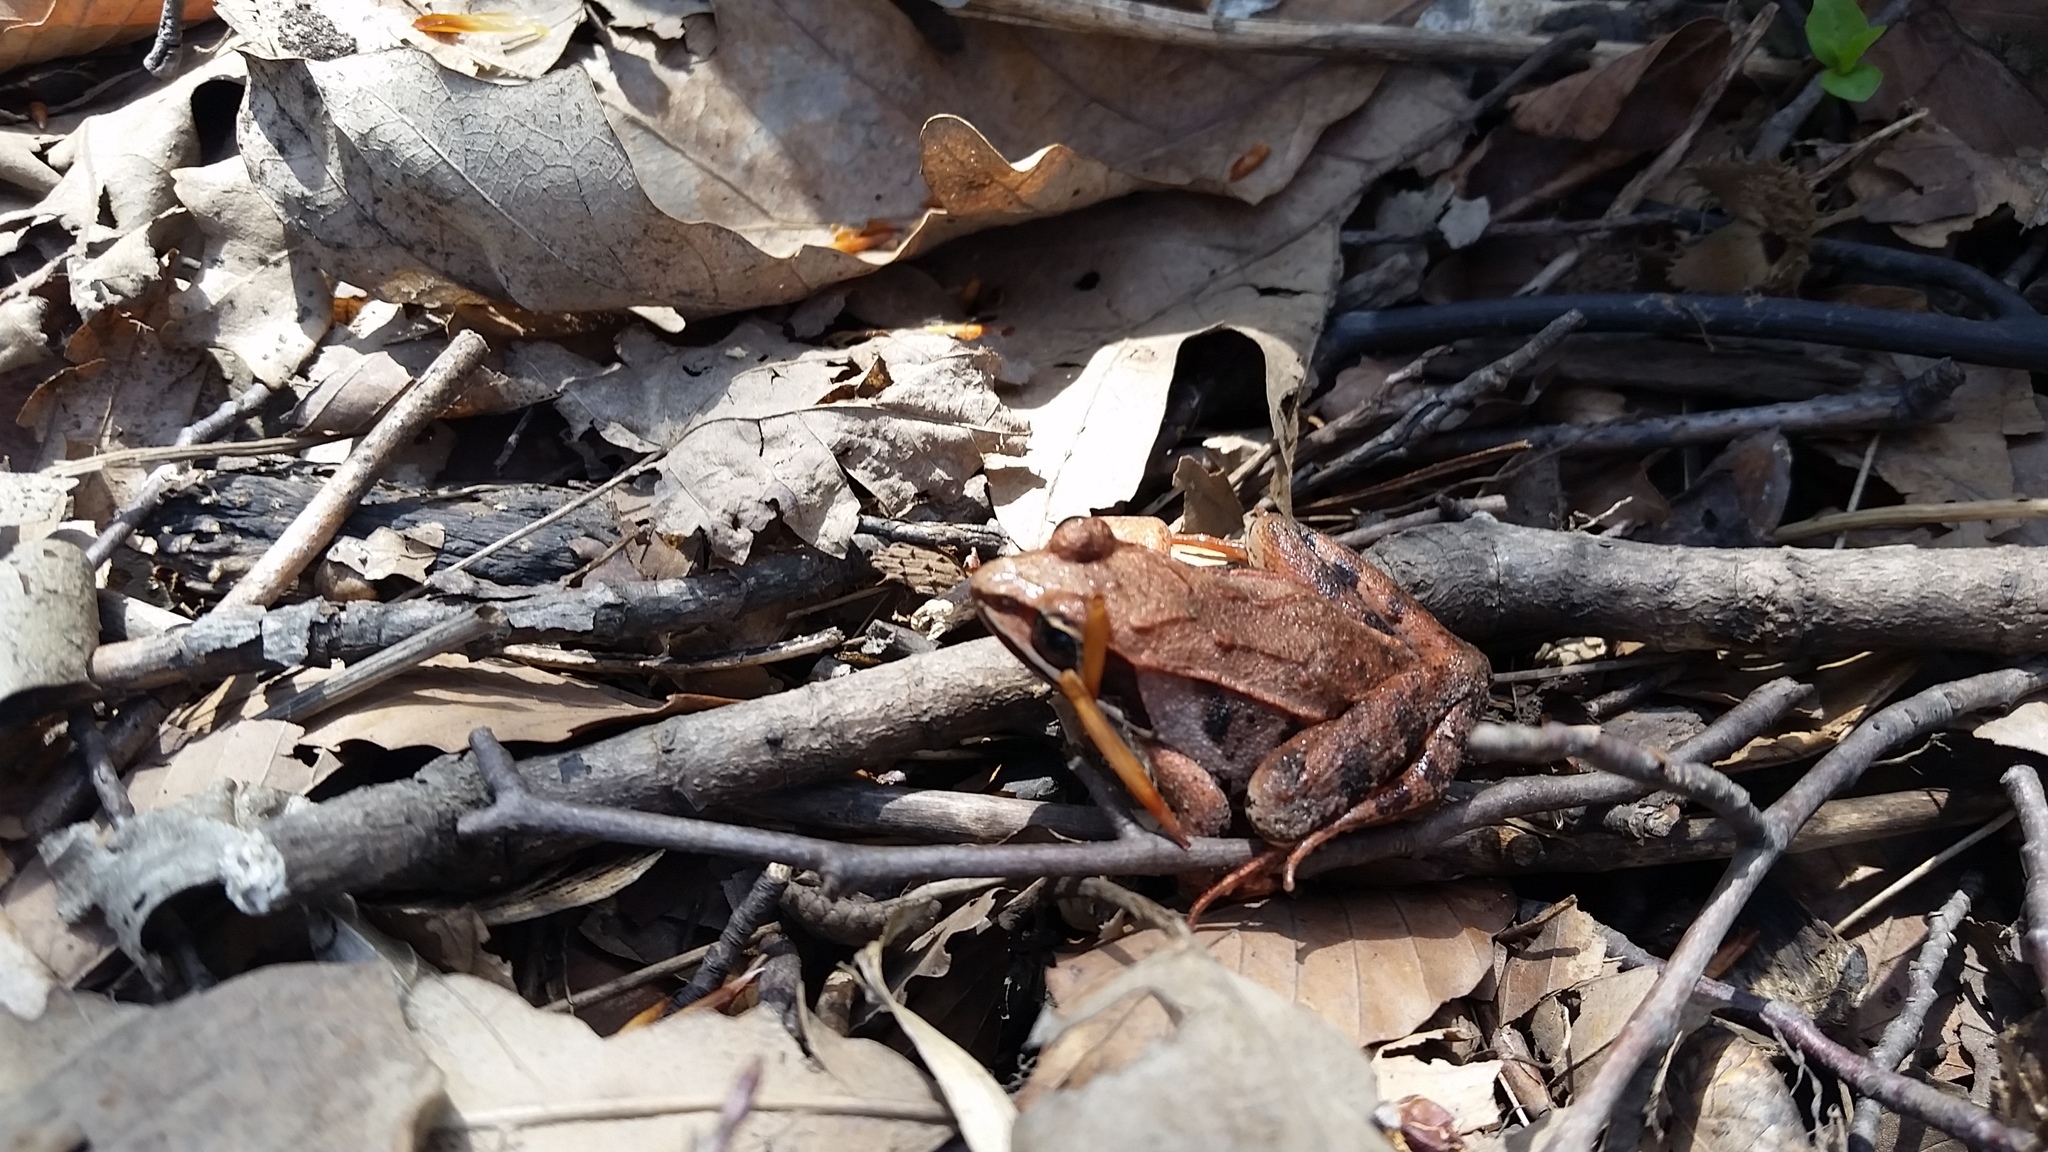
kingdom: Animalia
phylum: Chordata
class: Amphibia
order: Anura
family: Ranidae
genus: Lithobates
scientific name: Lithobates sylvaticus
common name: Wood frog
